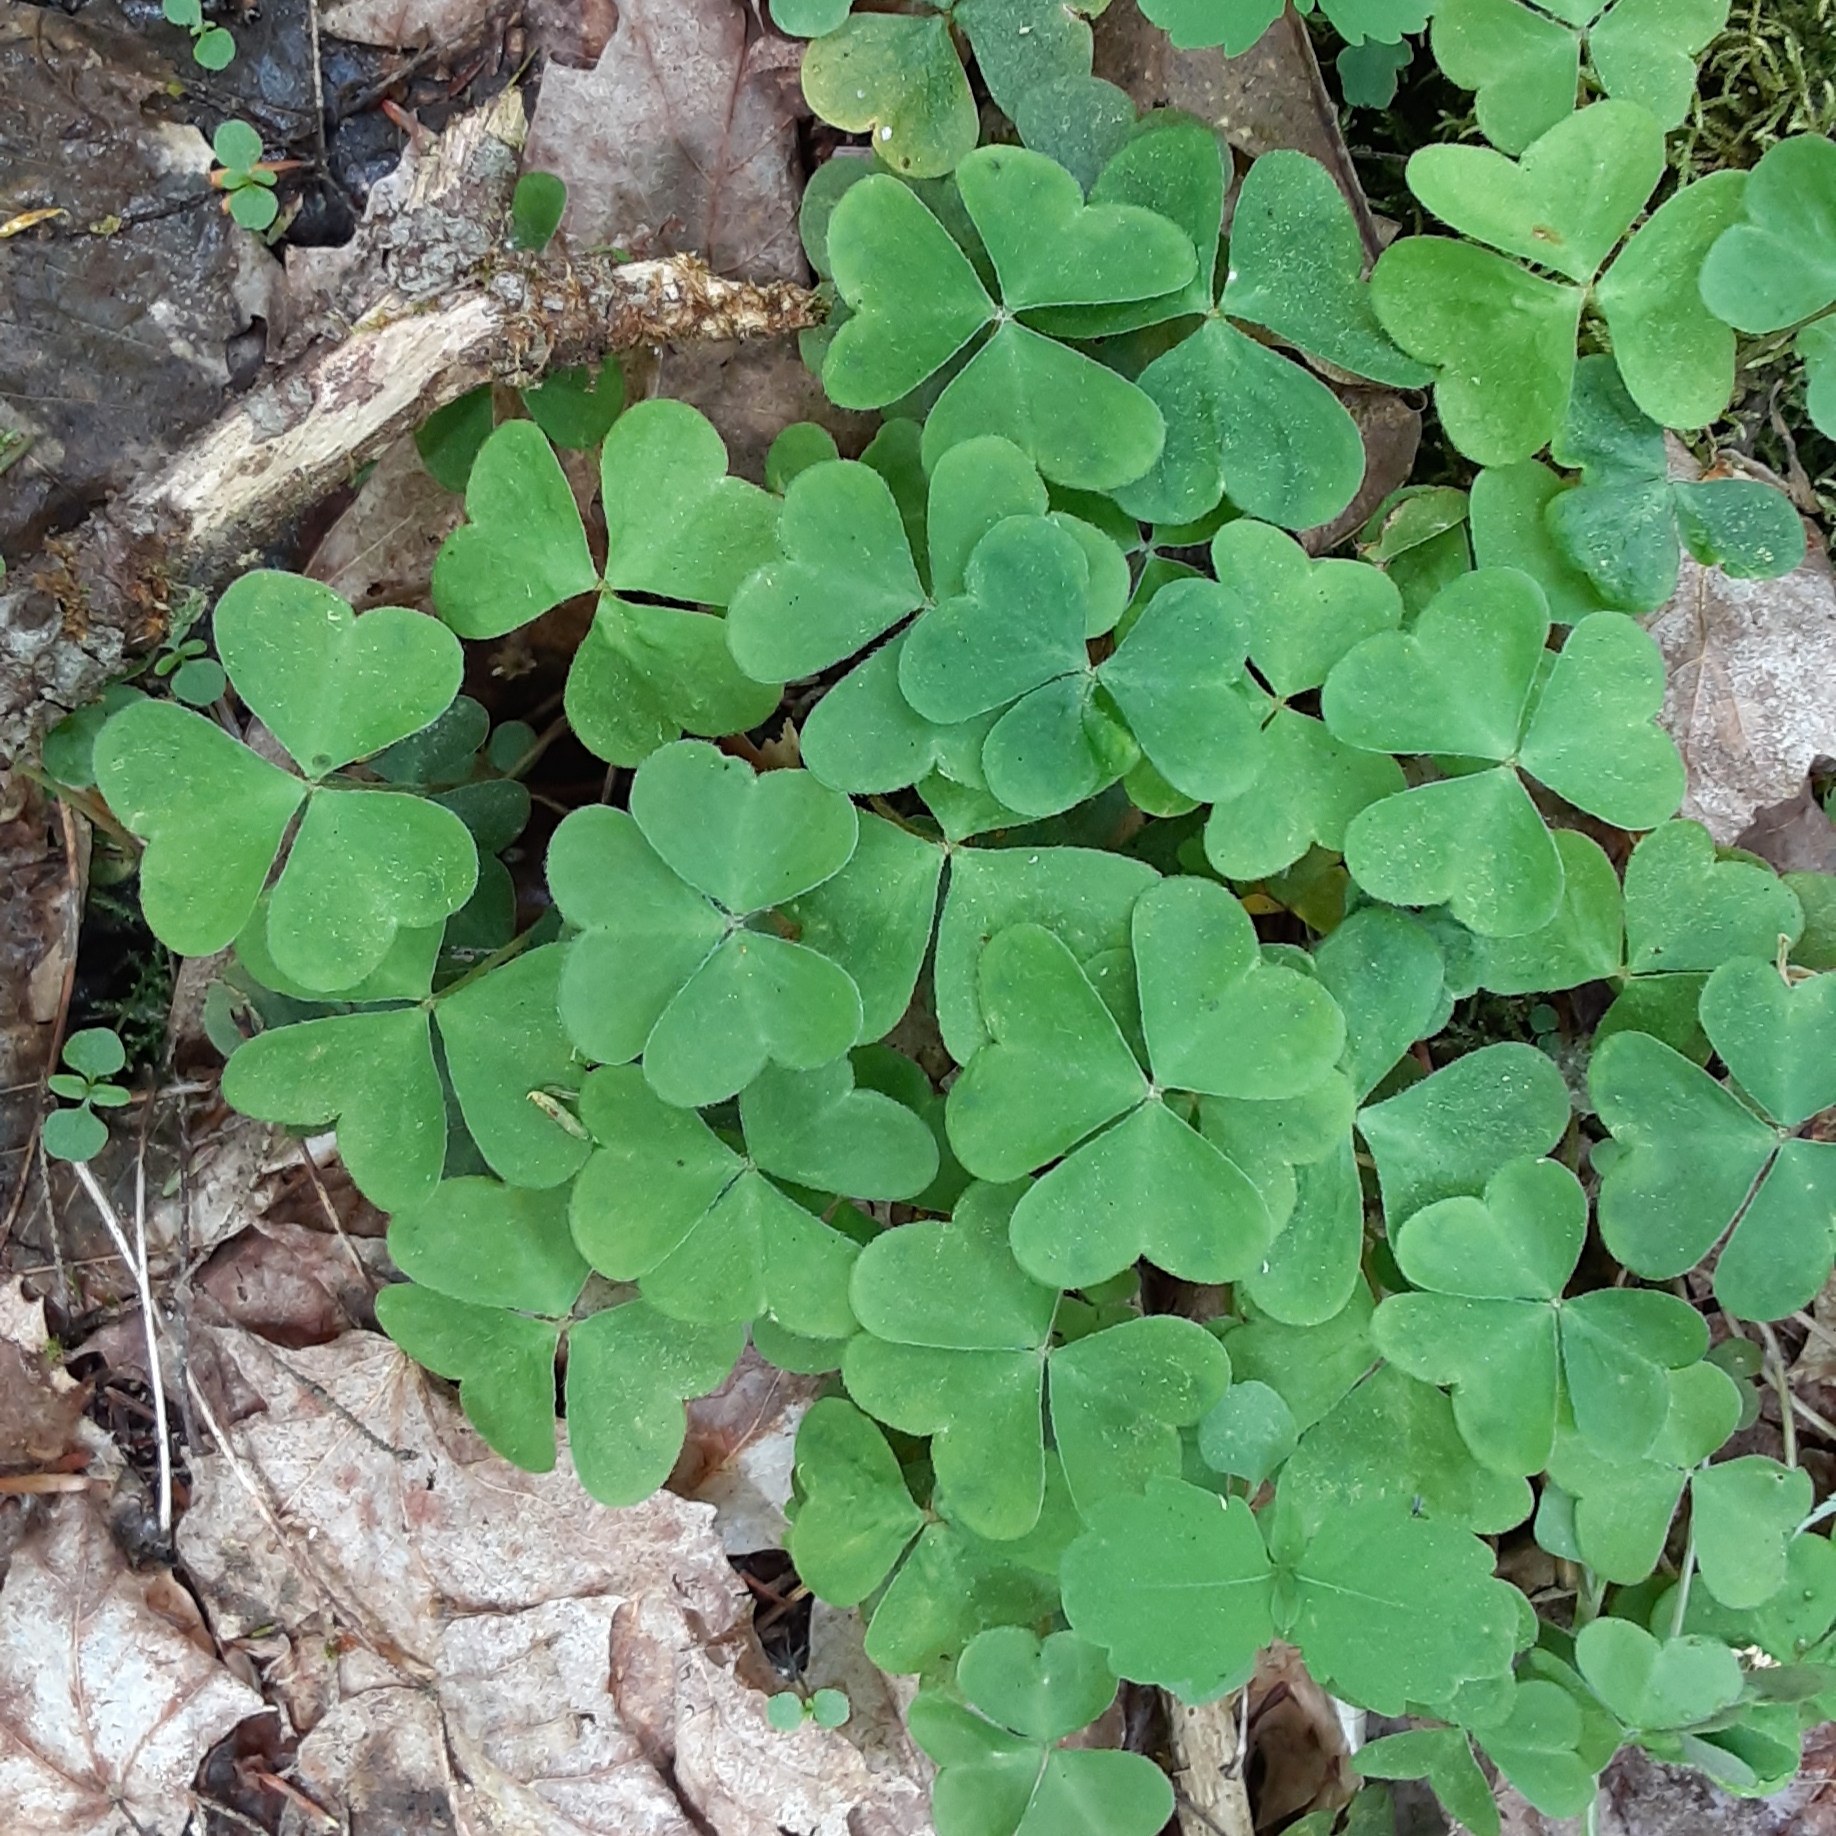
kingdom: Plantae
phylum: Tracheophyta
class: Magnoliopsida
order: Oxalidales
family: Oxalidaceae
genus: Oxalis
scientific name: Oxalis montana
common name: American wood-sorrel
